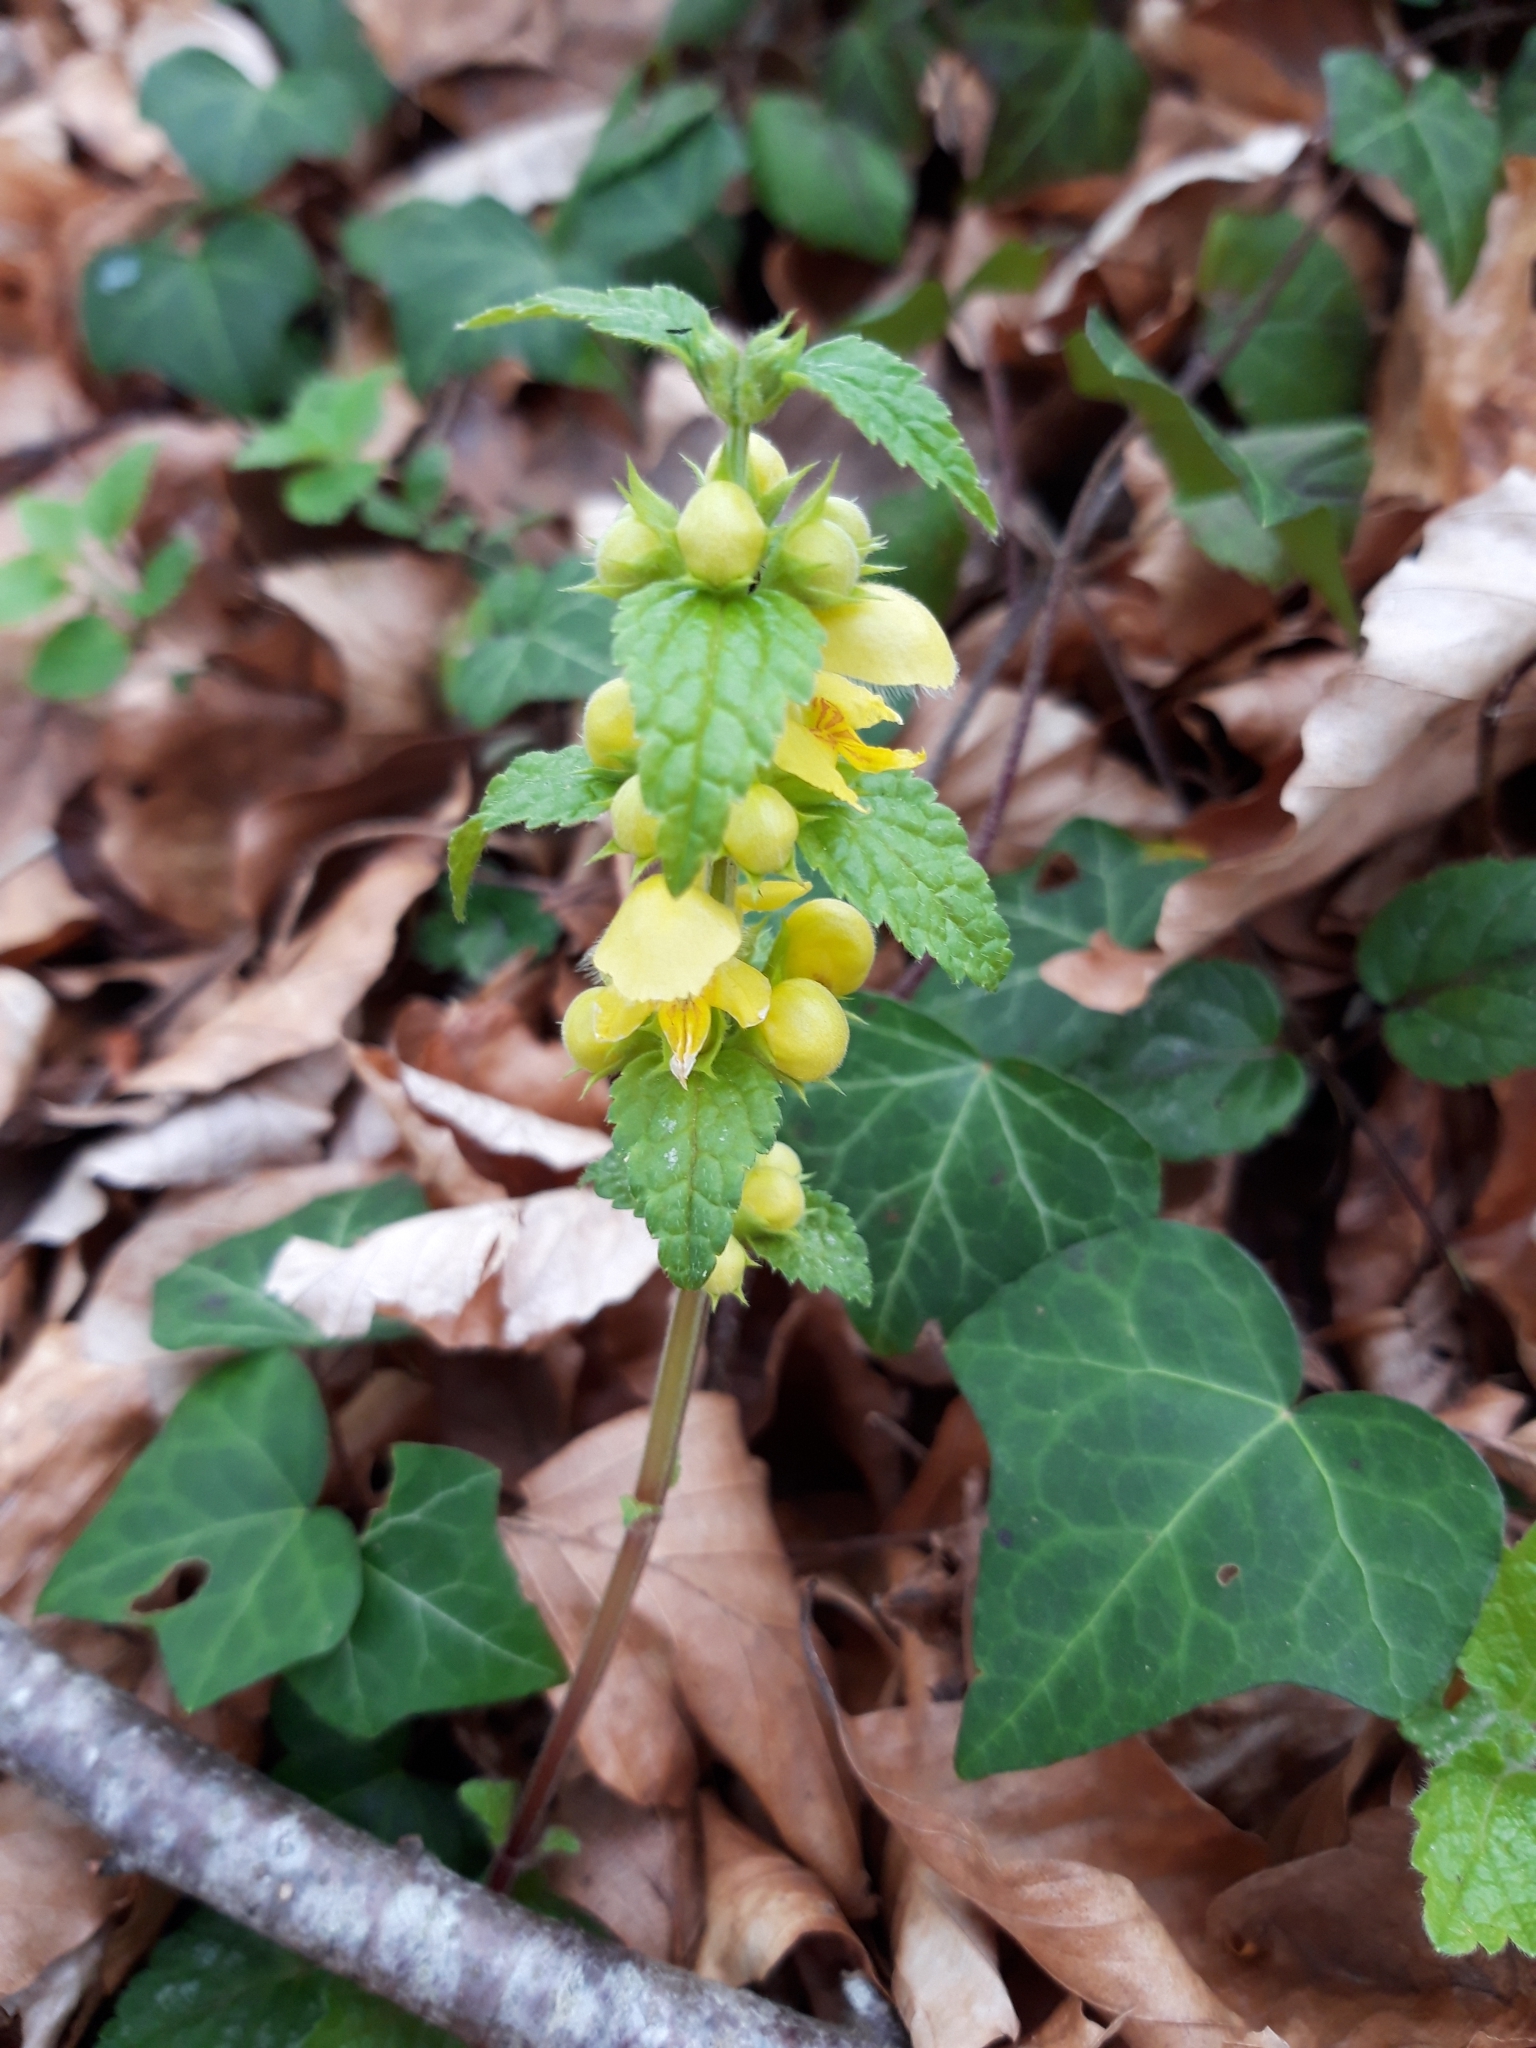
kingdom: Plantae
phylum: Tracheophyta
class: Magnoliopsida
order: Lamiales
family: Lamiaceae
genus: Lamium
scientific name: Lamium galeobdolon
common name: Yellow archangel
